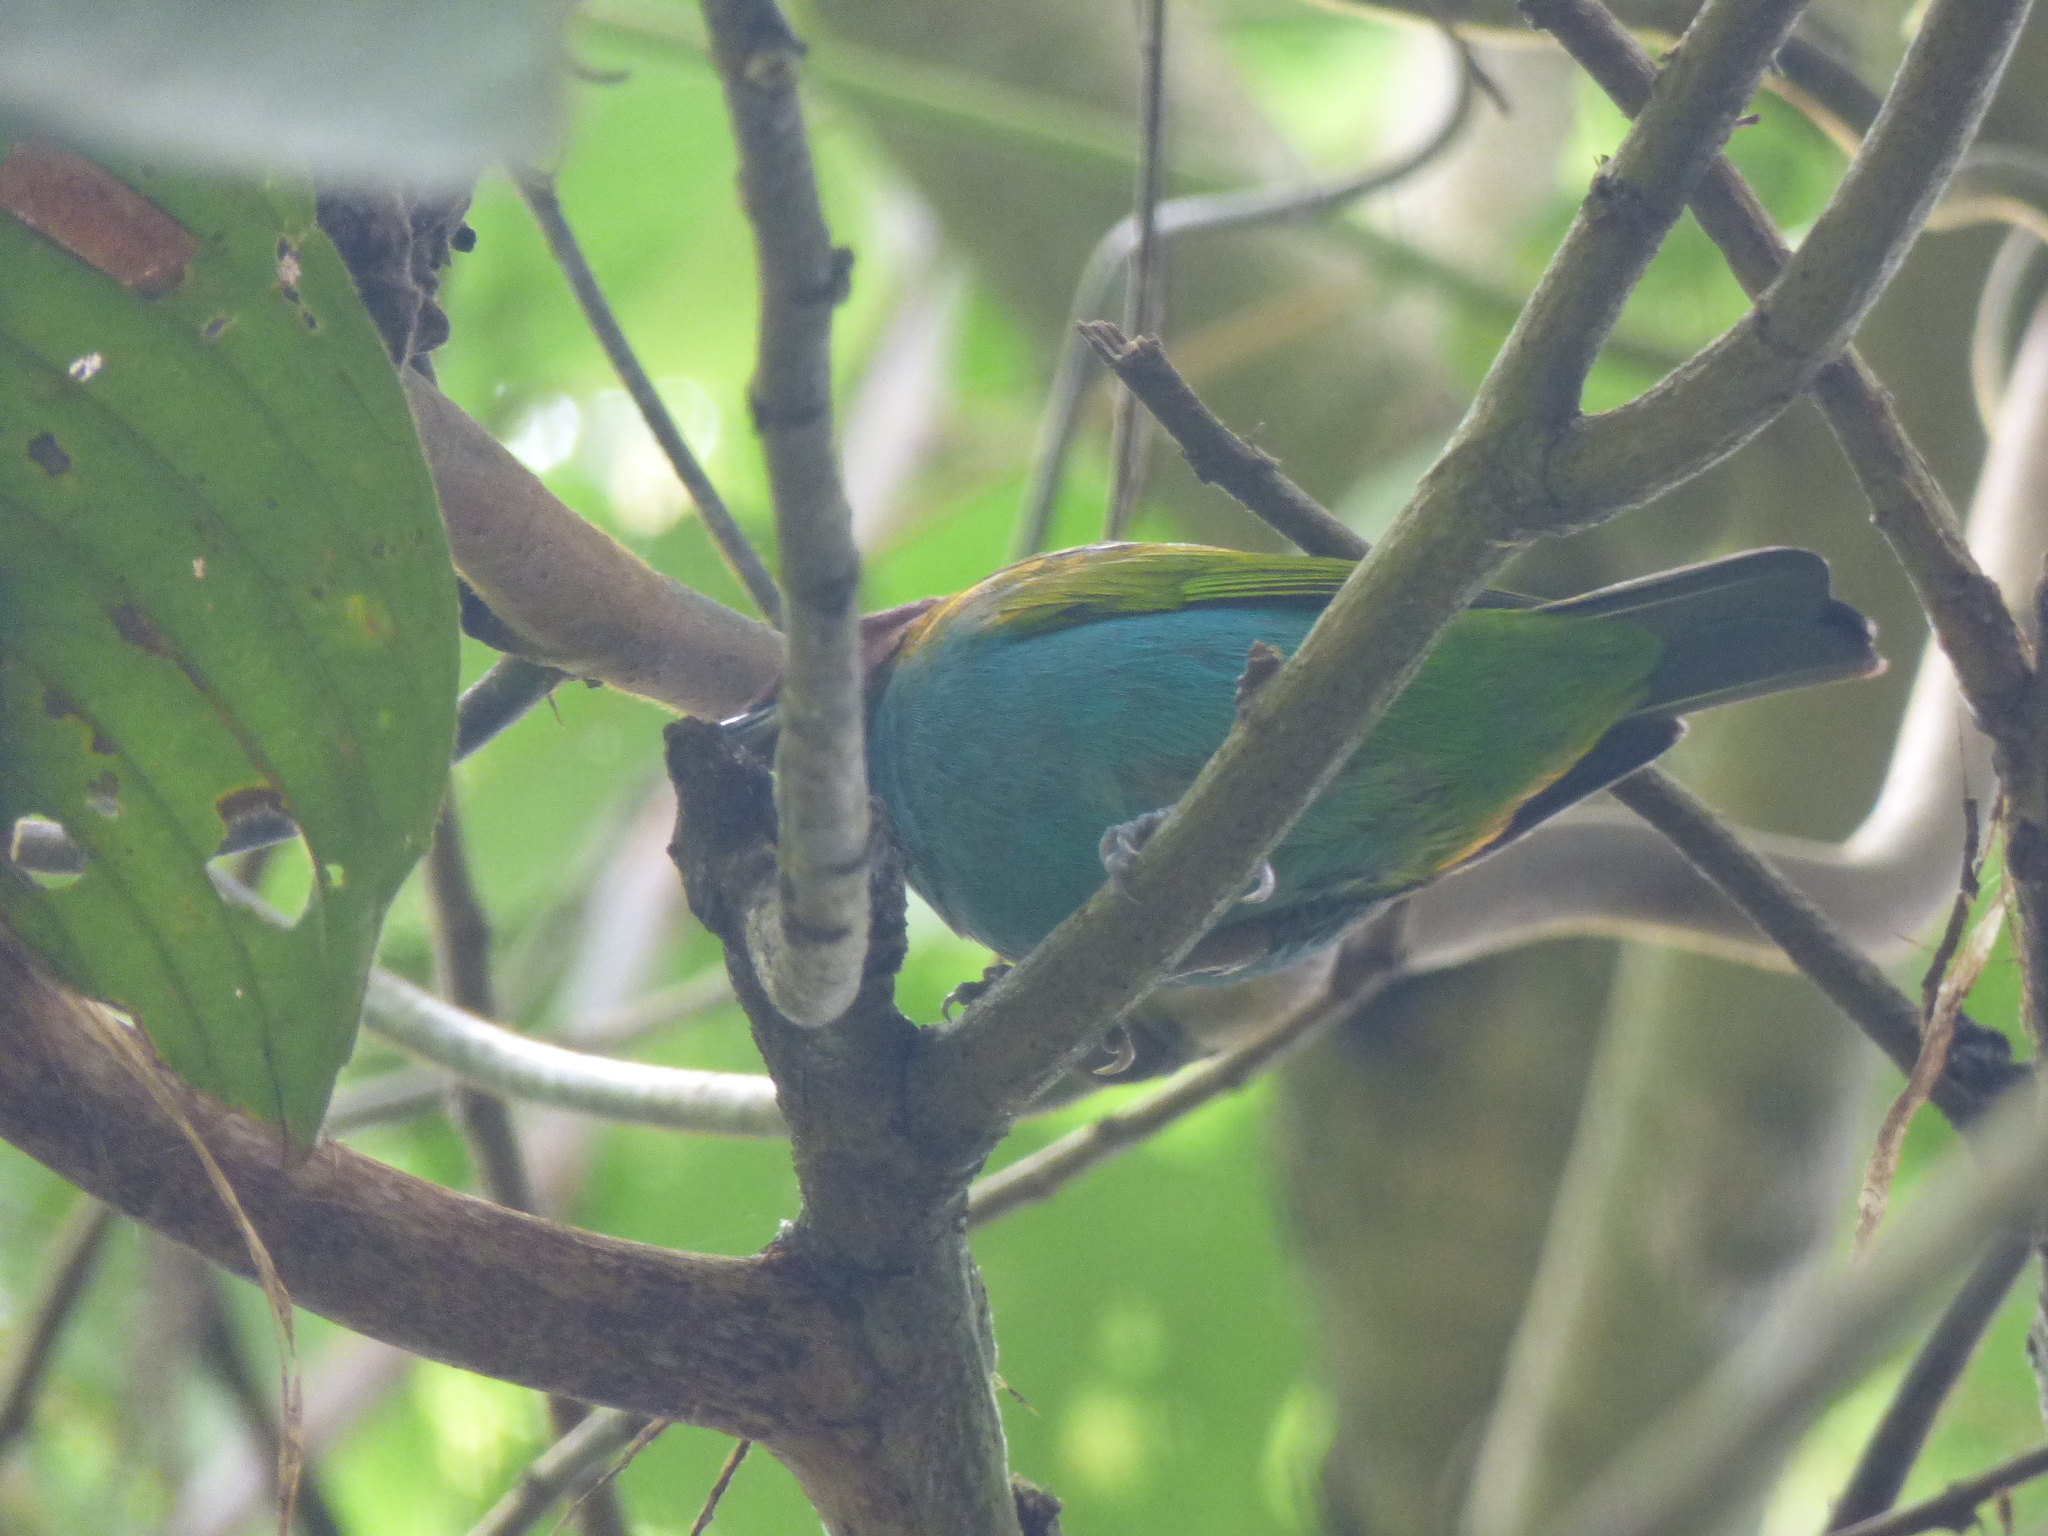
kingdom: Animalia
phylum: Chordata
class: Aves
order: Passeriformes
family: Thraupidae
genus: Tangara
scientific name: Tangara gyrola
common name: Bay-headed tanager
